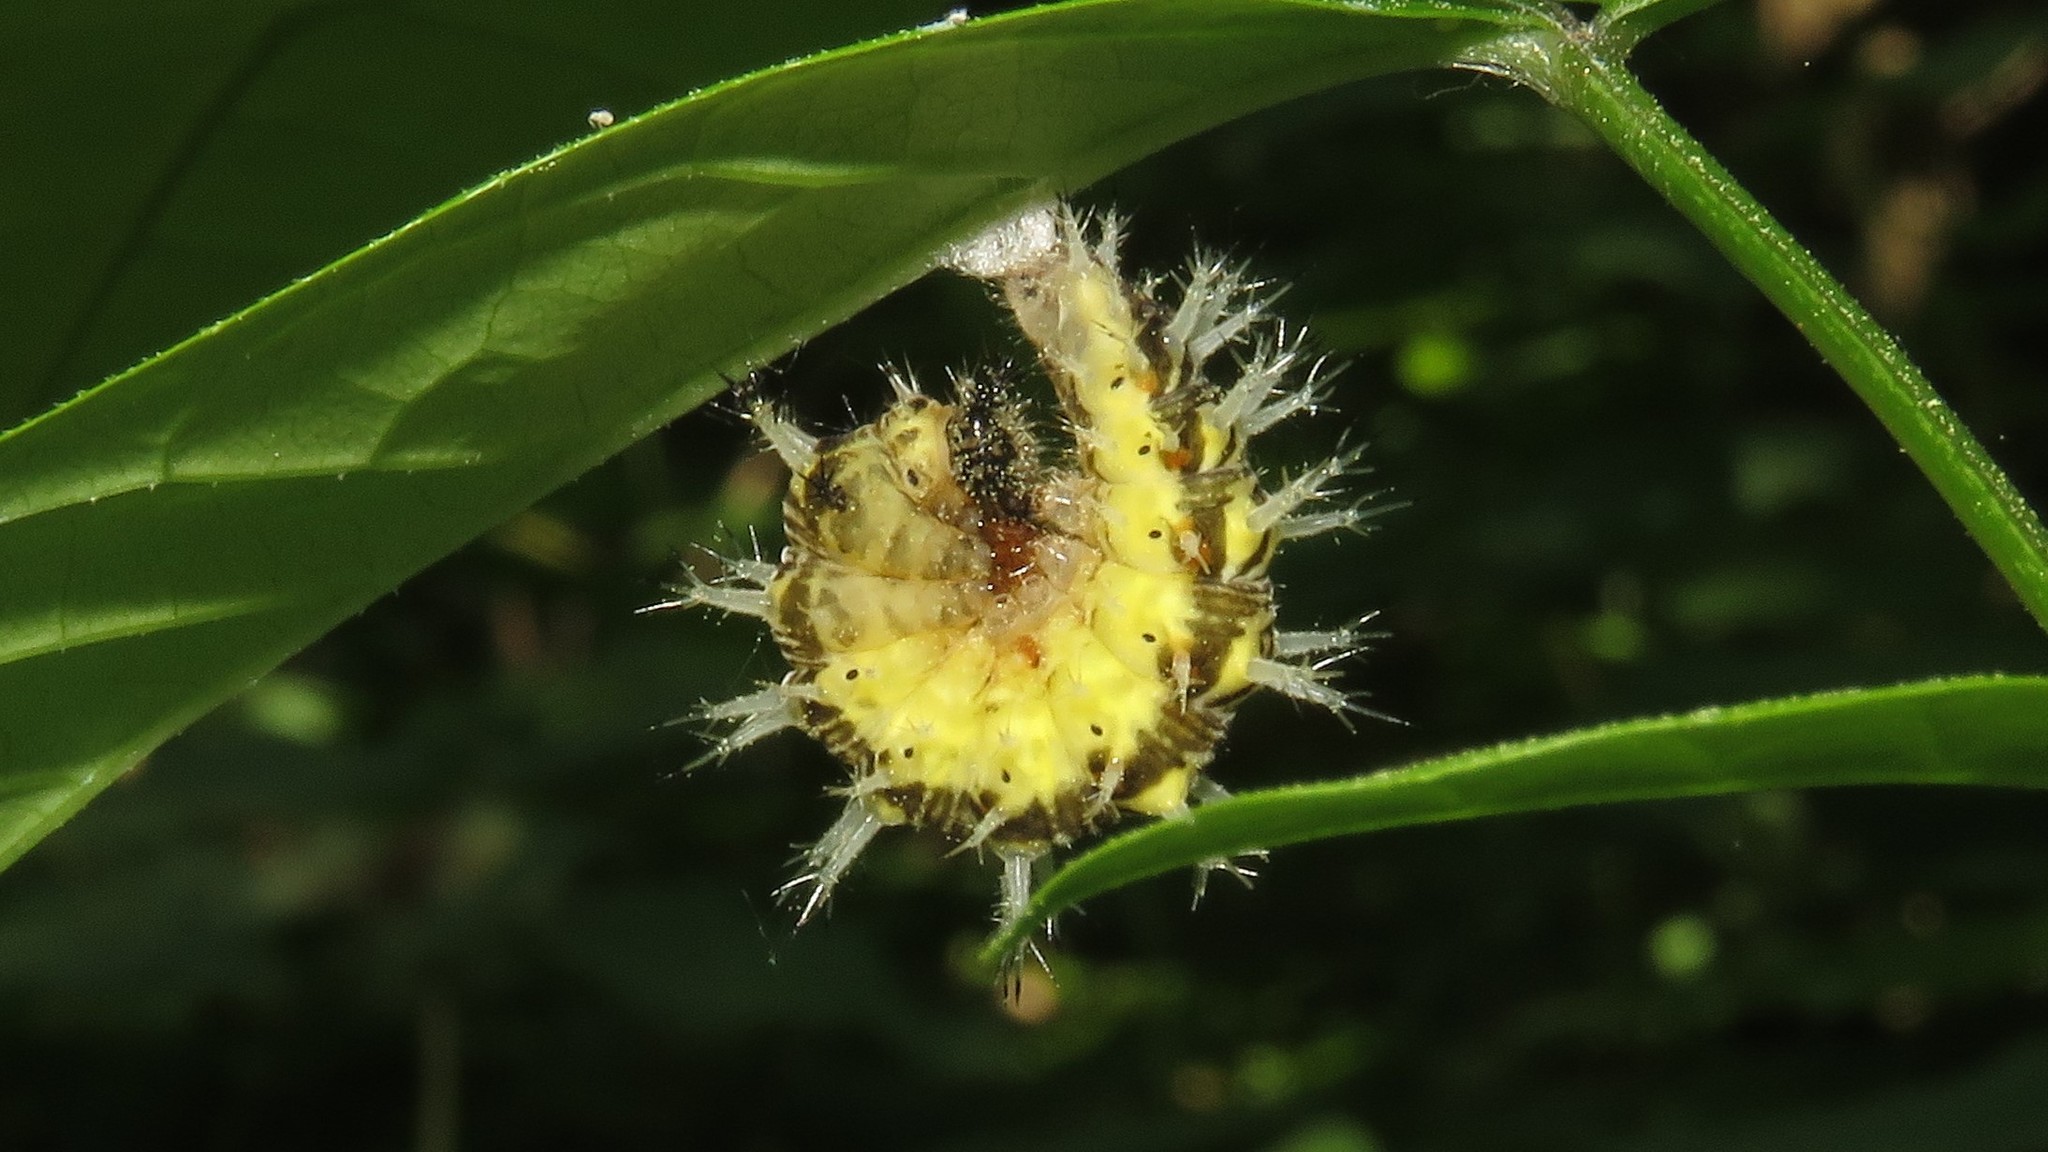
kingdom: Animalia
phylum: Arthropoda
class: Insecta
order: Lepidoptera
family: Nymphalidae
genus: Polygonia
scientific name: Polygonia comma
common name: Eastern comma
